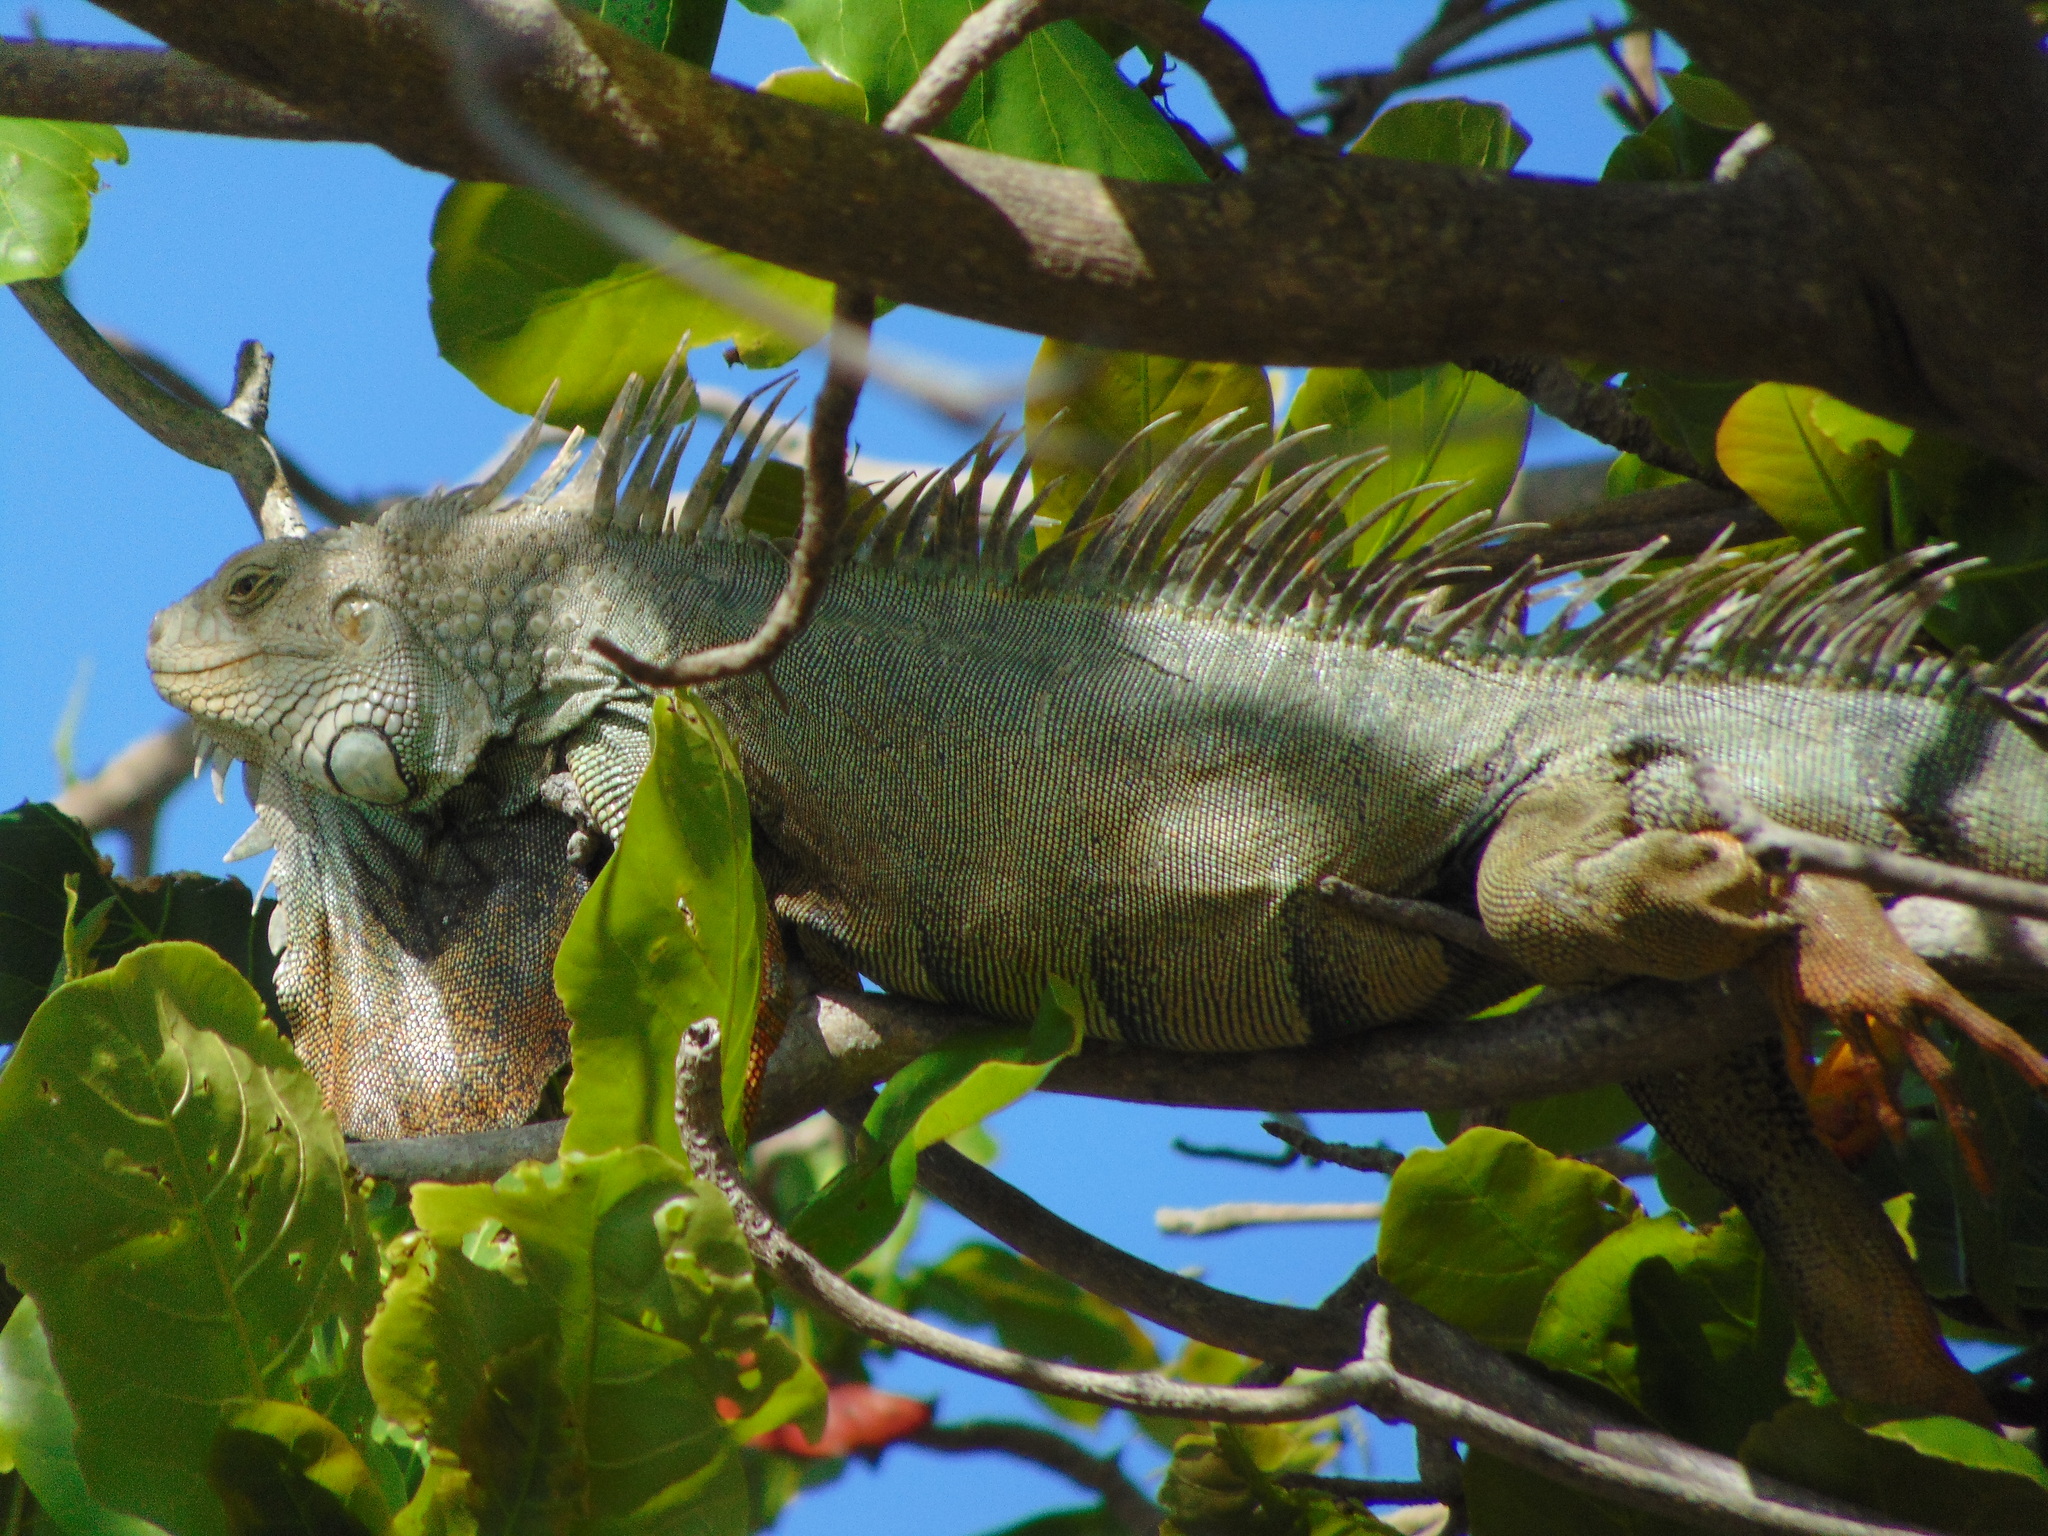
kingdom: Animalia
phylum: Chordata
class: Squamata
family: Iguanidae
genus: Iguana
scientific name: Iguana iguana
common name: Green iguana
